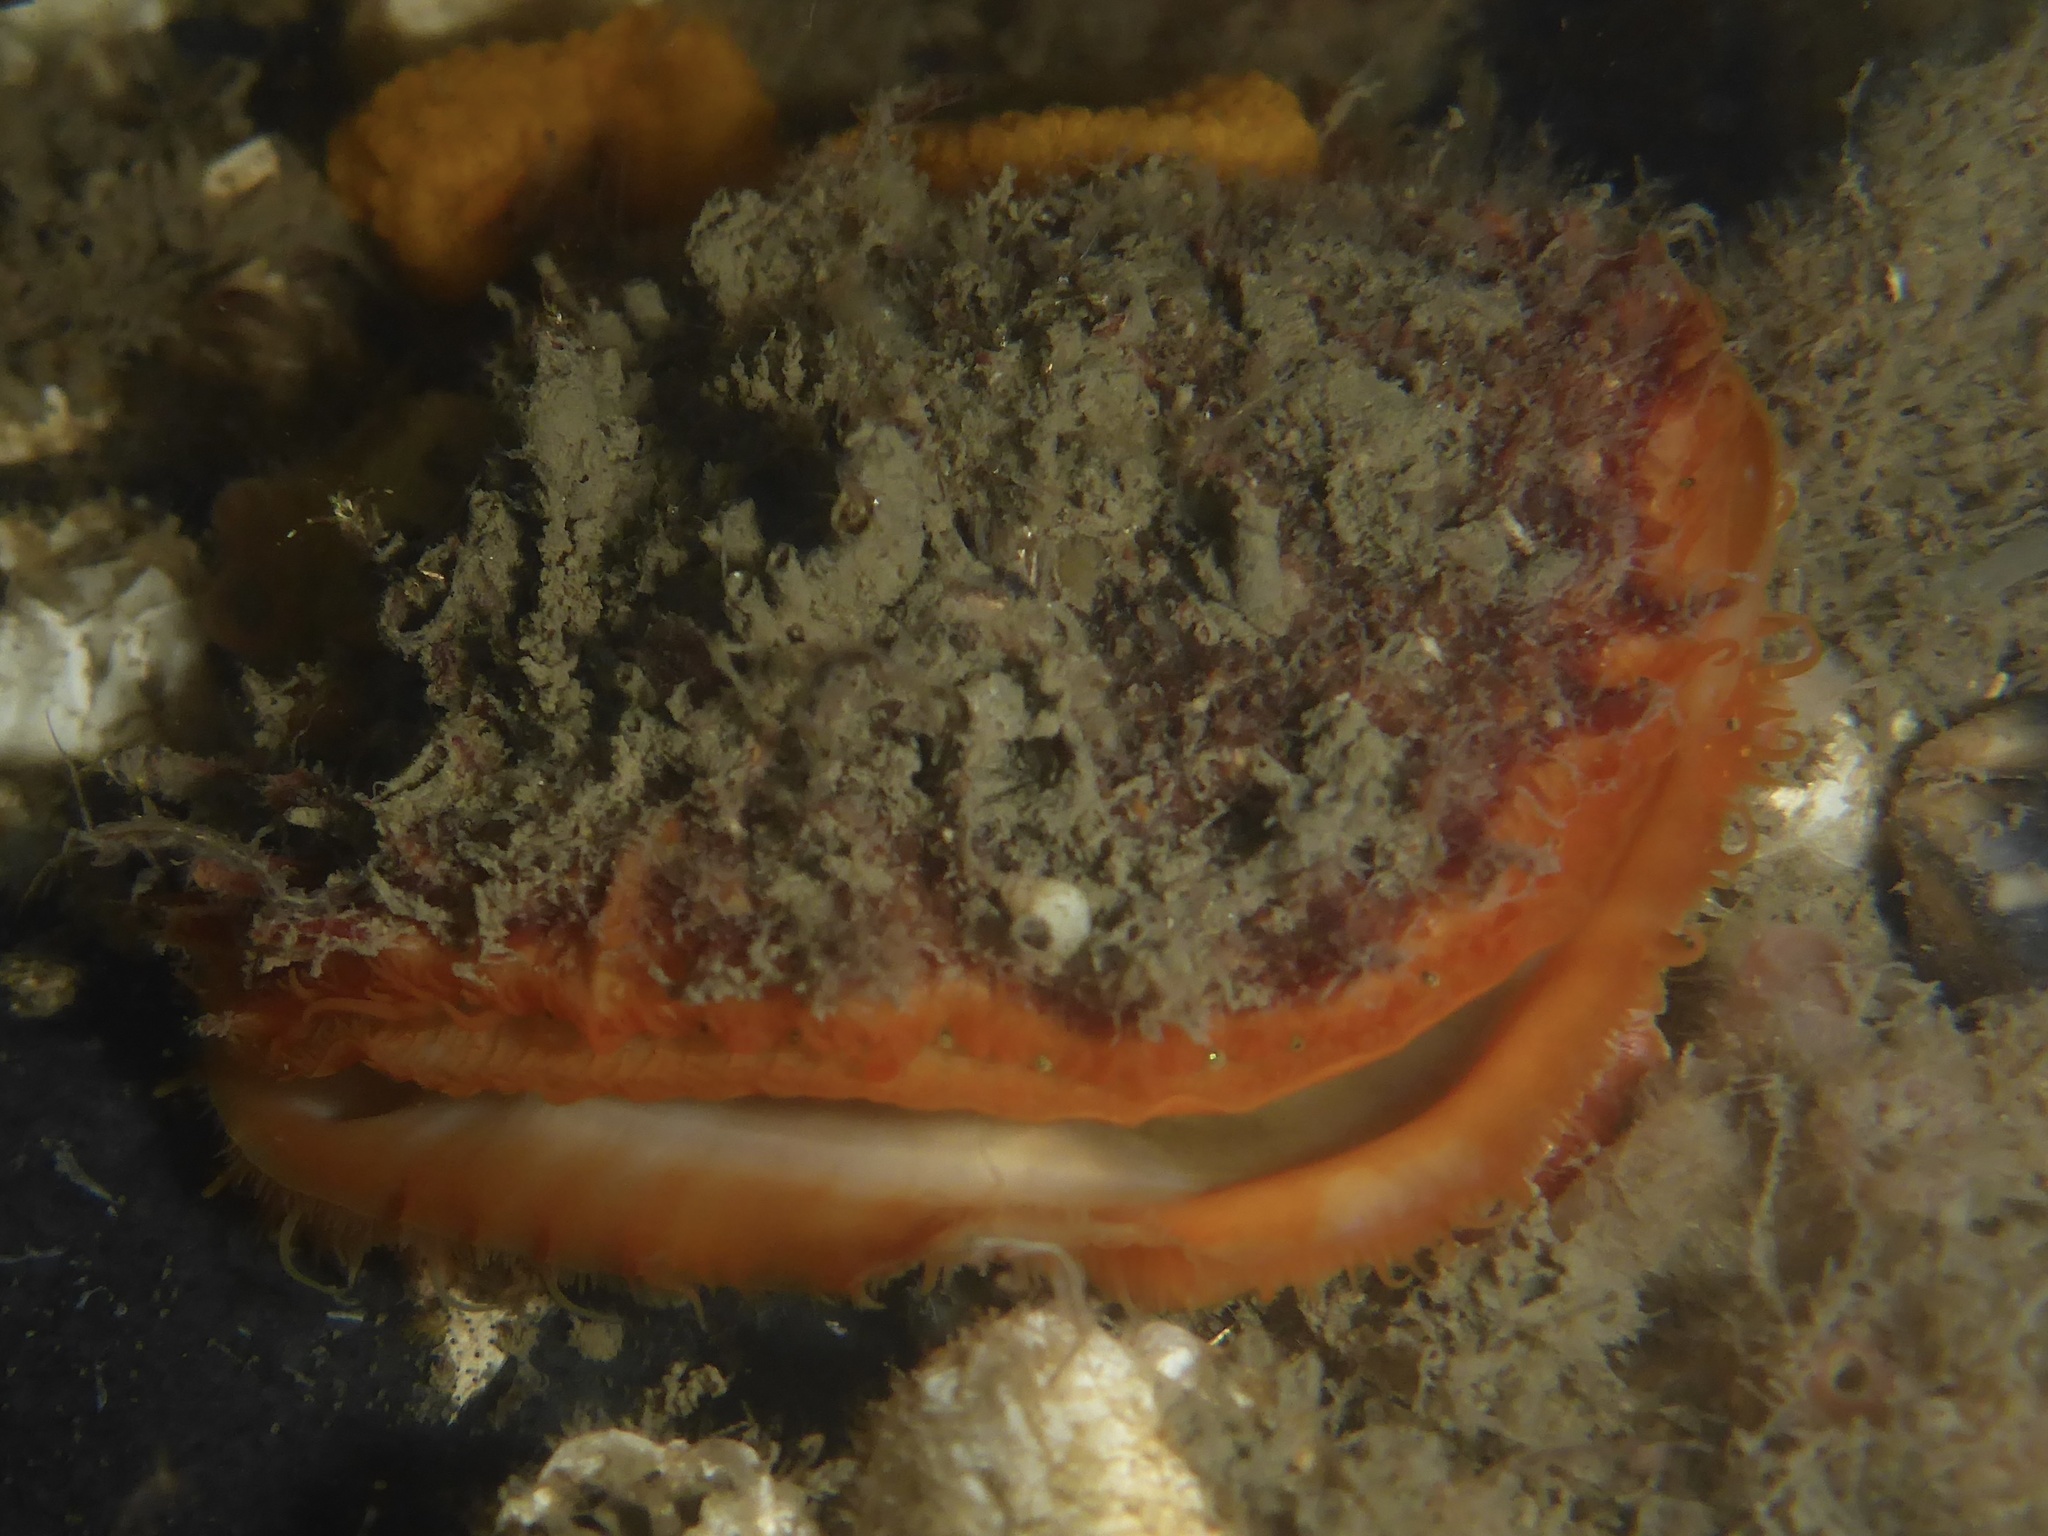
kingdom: Animalia
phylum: Mollusca
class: Bivalvia
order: Pectinida
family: Pectinidae
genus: Crassadoma
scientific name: Crassadoma gigantea
